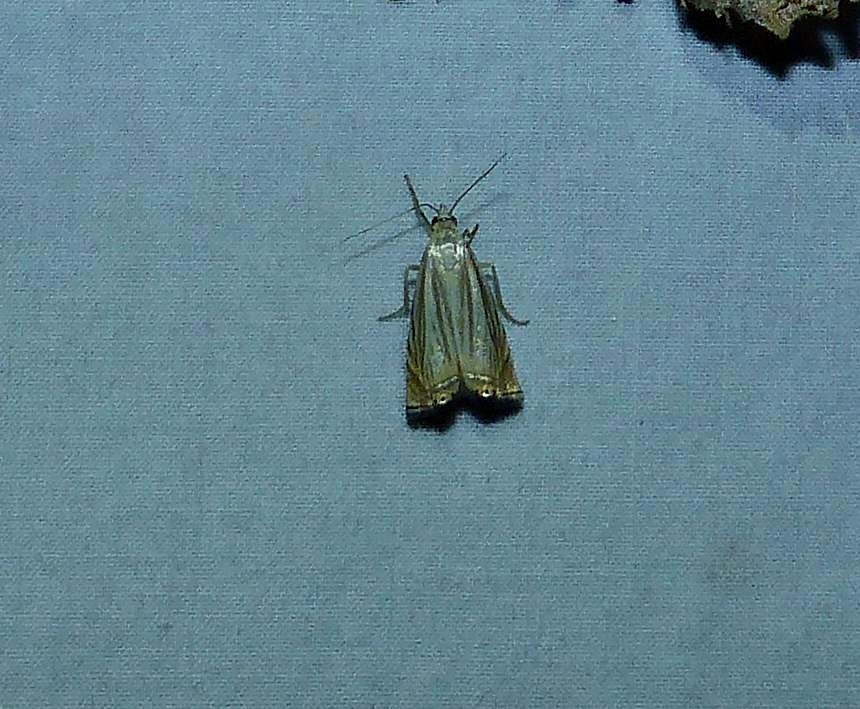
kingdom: Animalia
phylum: Arthropoda
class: Insecta
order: Lepidoptera
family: Crambidae
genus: Chrysoteuchia
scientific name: Chrysoteuchia topiarius
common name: Topiary grass-veneer
